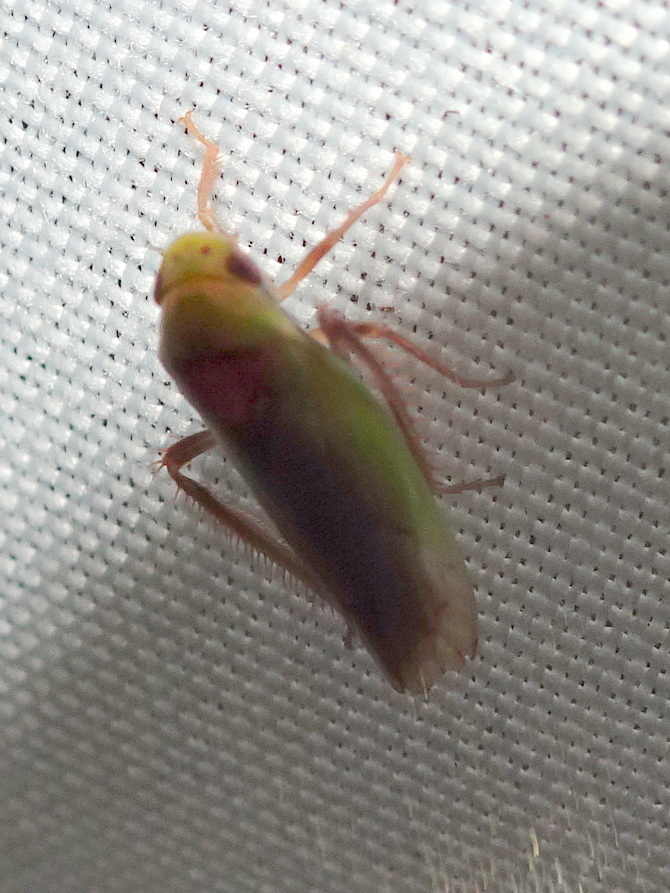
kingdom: Animalia
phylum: Arthropoda
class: Insecta
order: Hemiptera
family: Cicadellidae
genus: Ponana
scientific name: Ponana pectoralis
